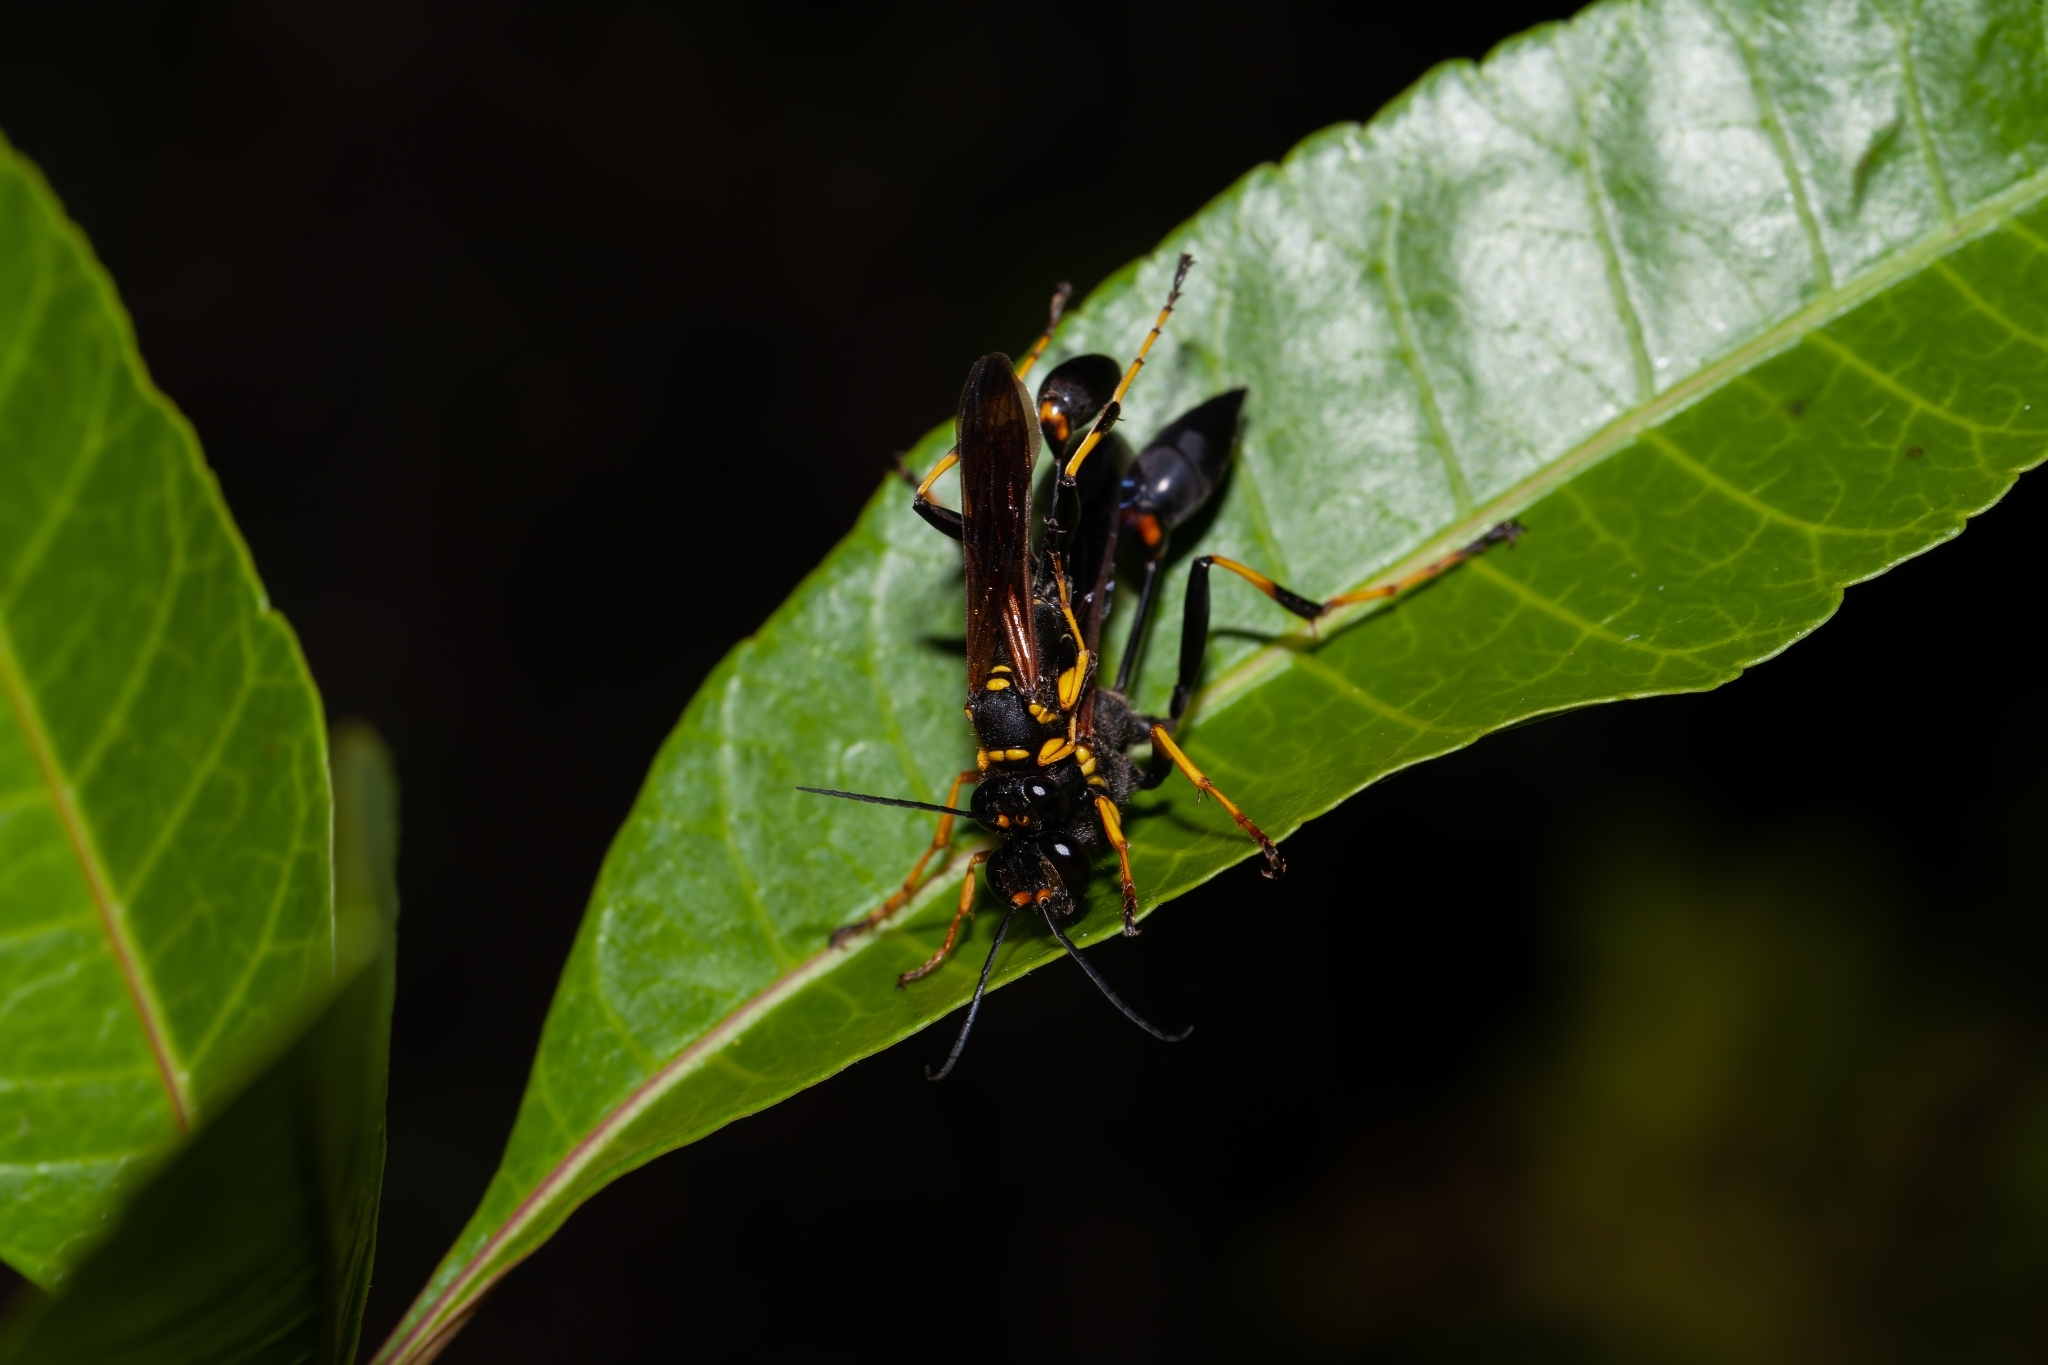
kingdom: Animalia
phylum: Arthropoda
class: Insecta
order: Hymenoptera
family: Sphecidae
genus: Sceliphron
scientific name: Sceliphron caementarium
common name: Mud dauber
